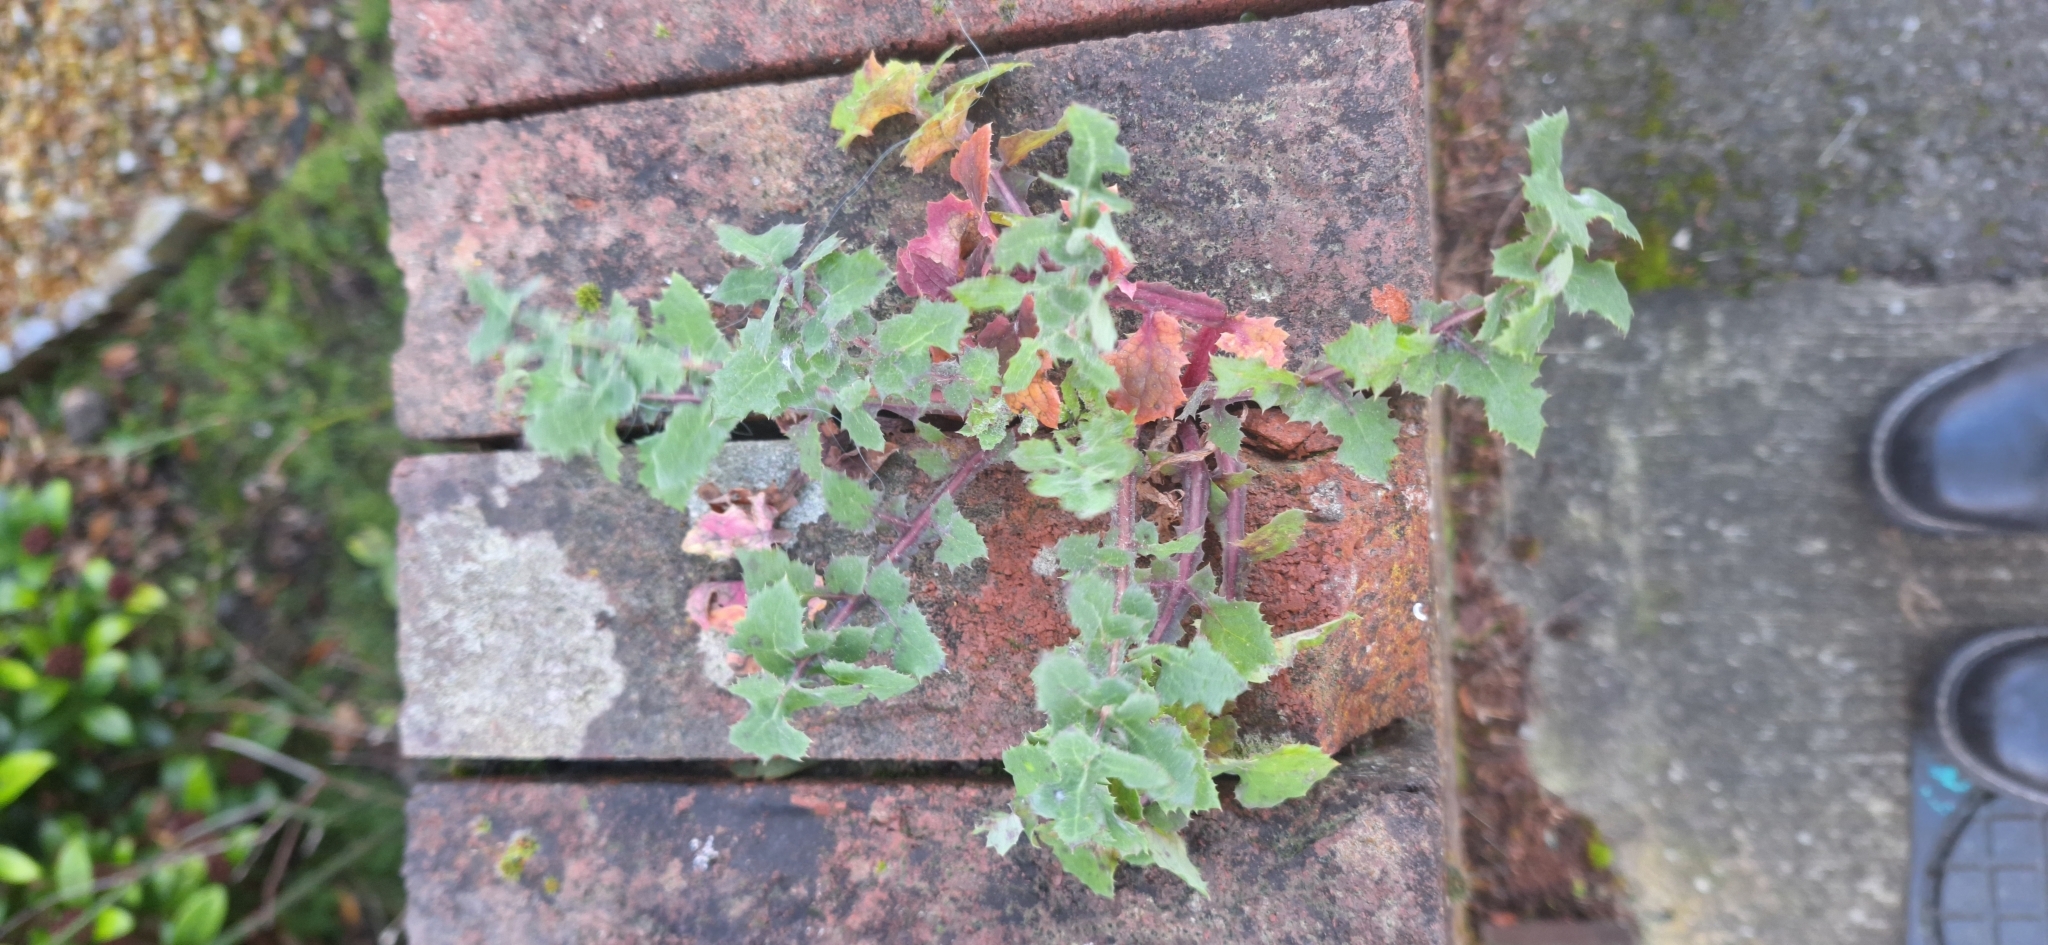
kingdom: Plantae
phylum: Tracheophyta
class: Magnoliopsida
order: Asterales
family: Asteraceae
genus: Sonchus
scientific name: Sonchus oleraceus
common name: Common sowthistle
